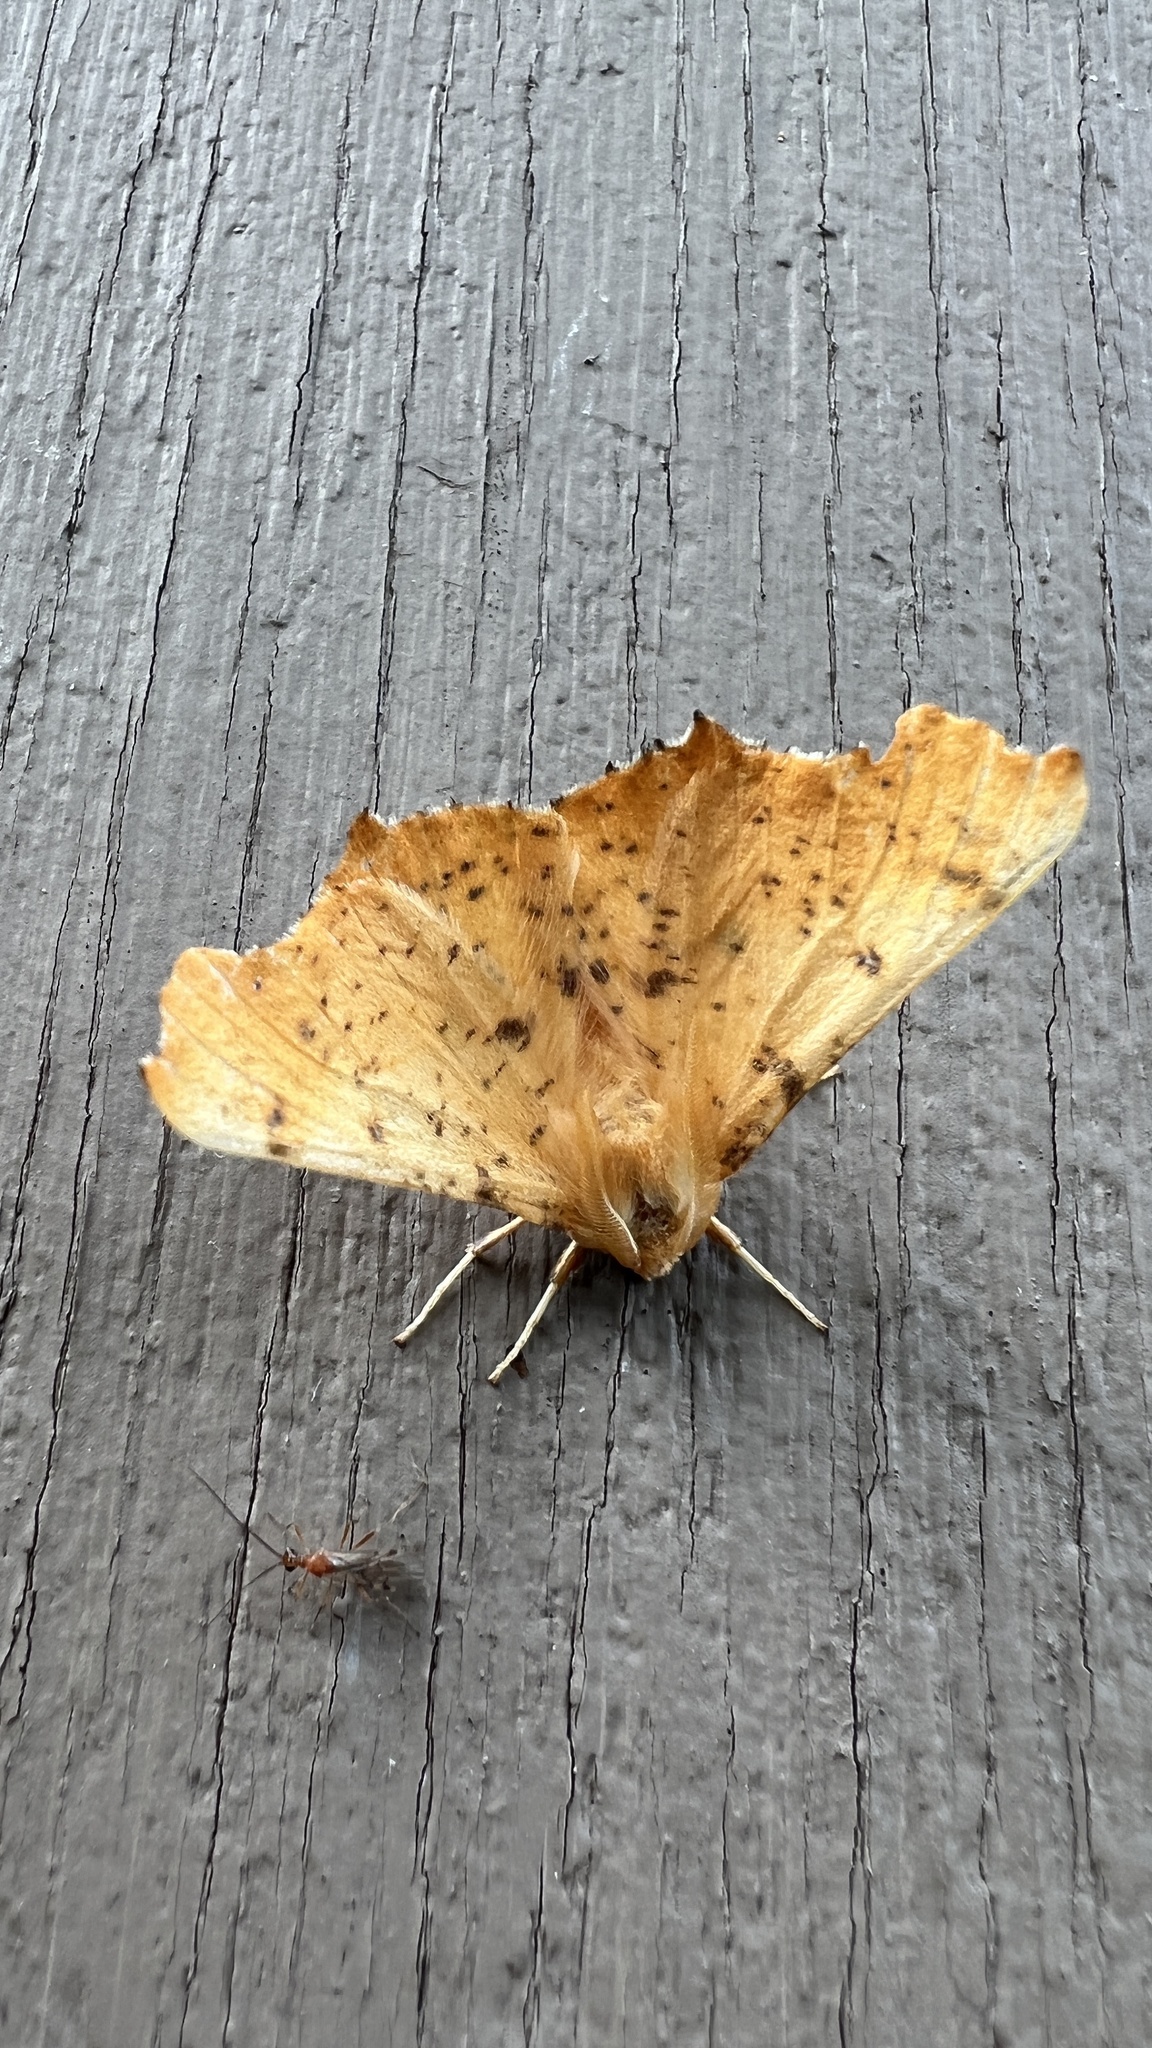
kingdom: Animalia
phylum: Arthropoda
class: Insecta
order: Lepidoptera
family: Geometridae
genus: Ennomos
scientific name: Ennomos magnaria
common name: Maple spanworm
